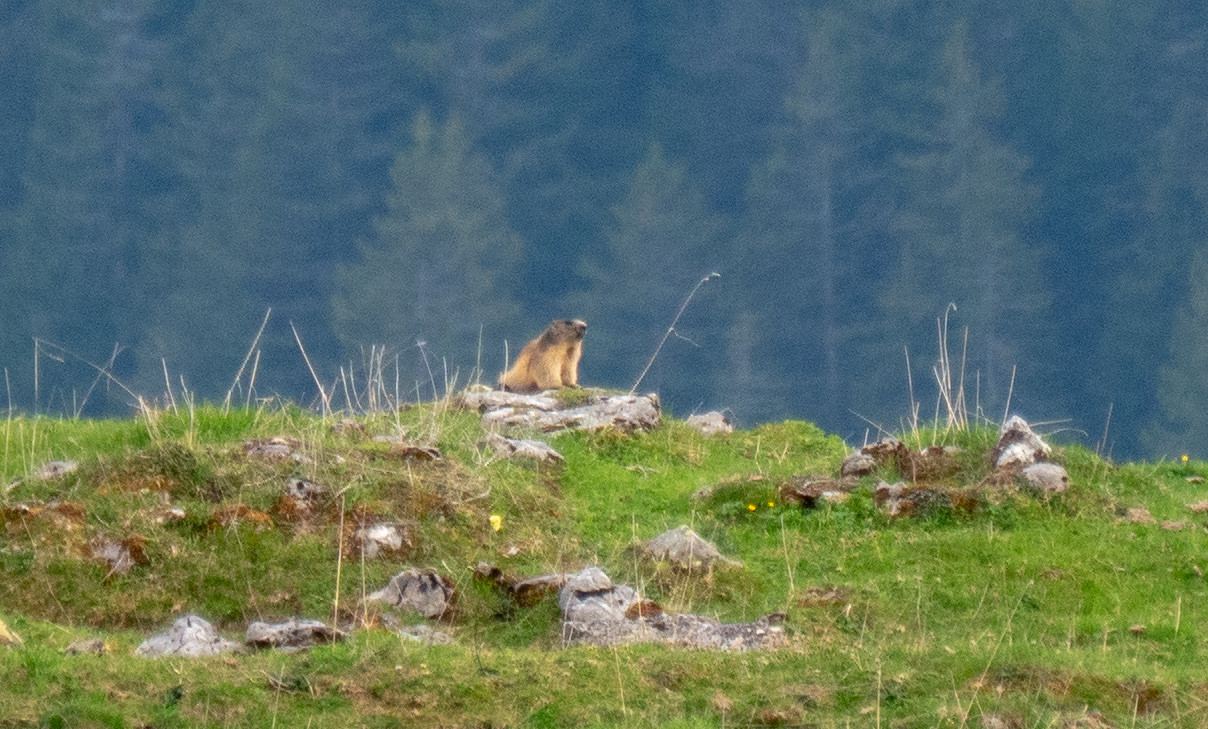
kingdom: Animalia
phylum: Chordata
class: Mammalia
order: Rodentia
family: Sciuridae
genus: Marmota
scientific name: Marmota marmota
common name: Alpine marmot
